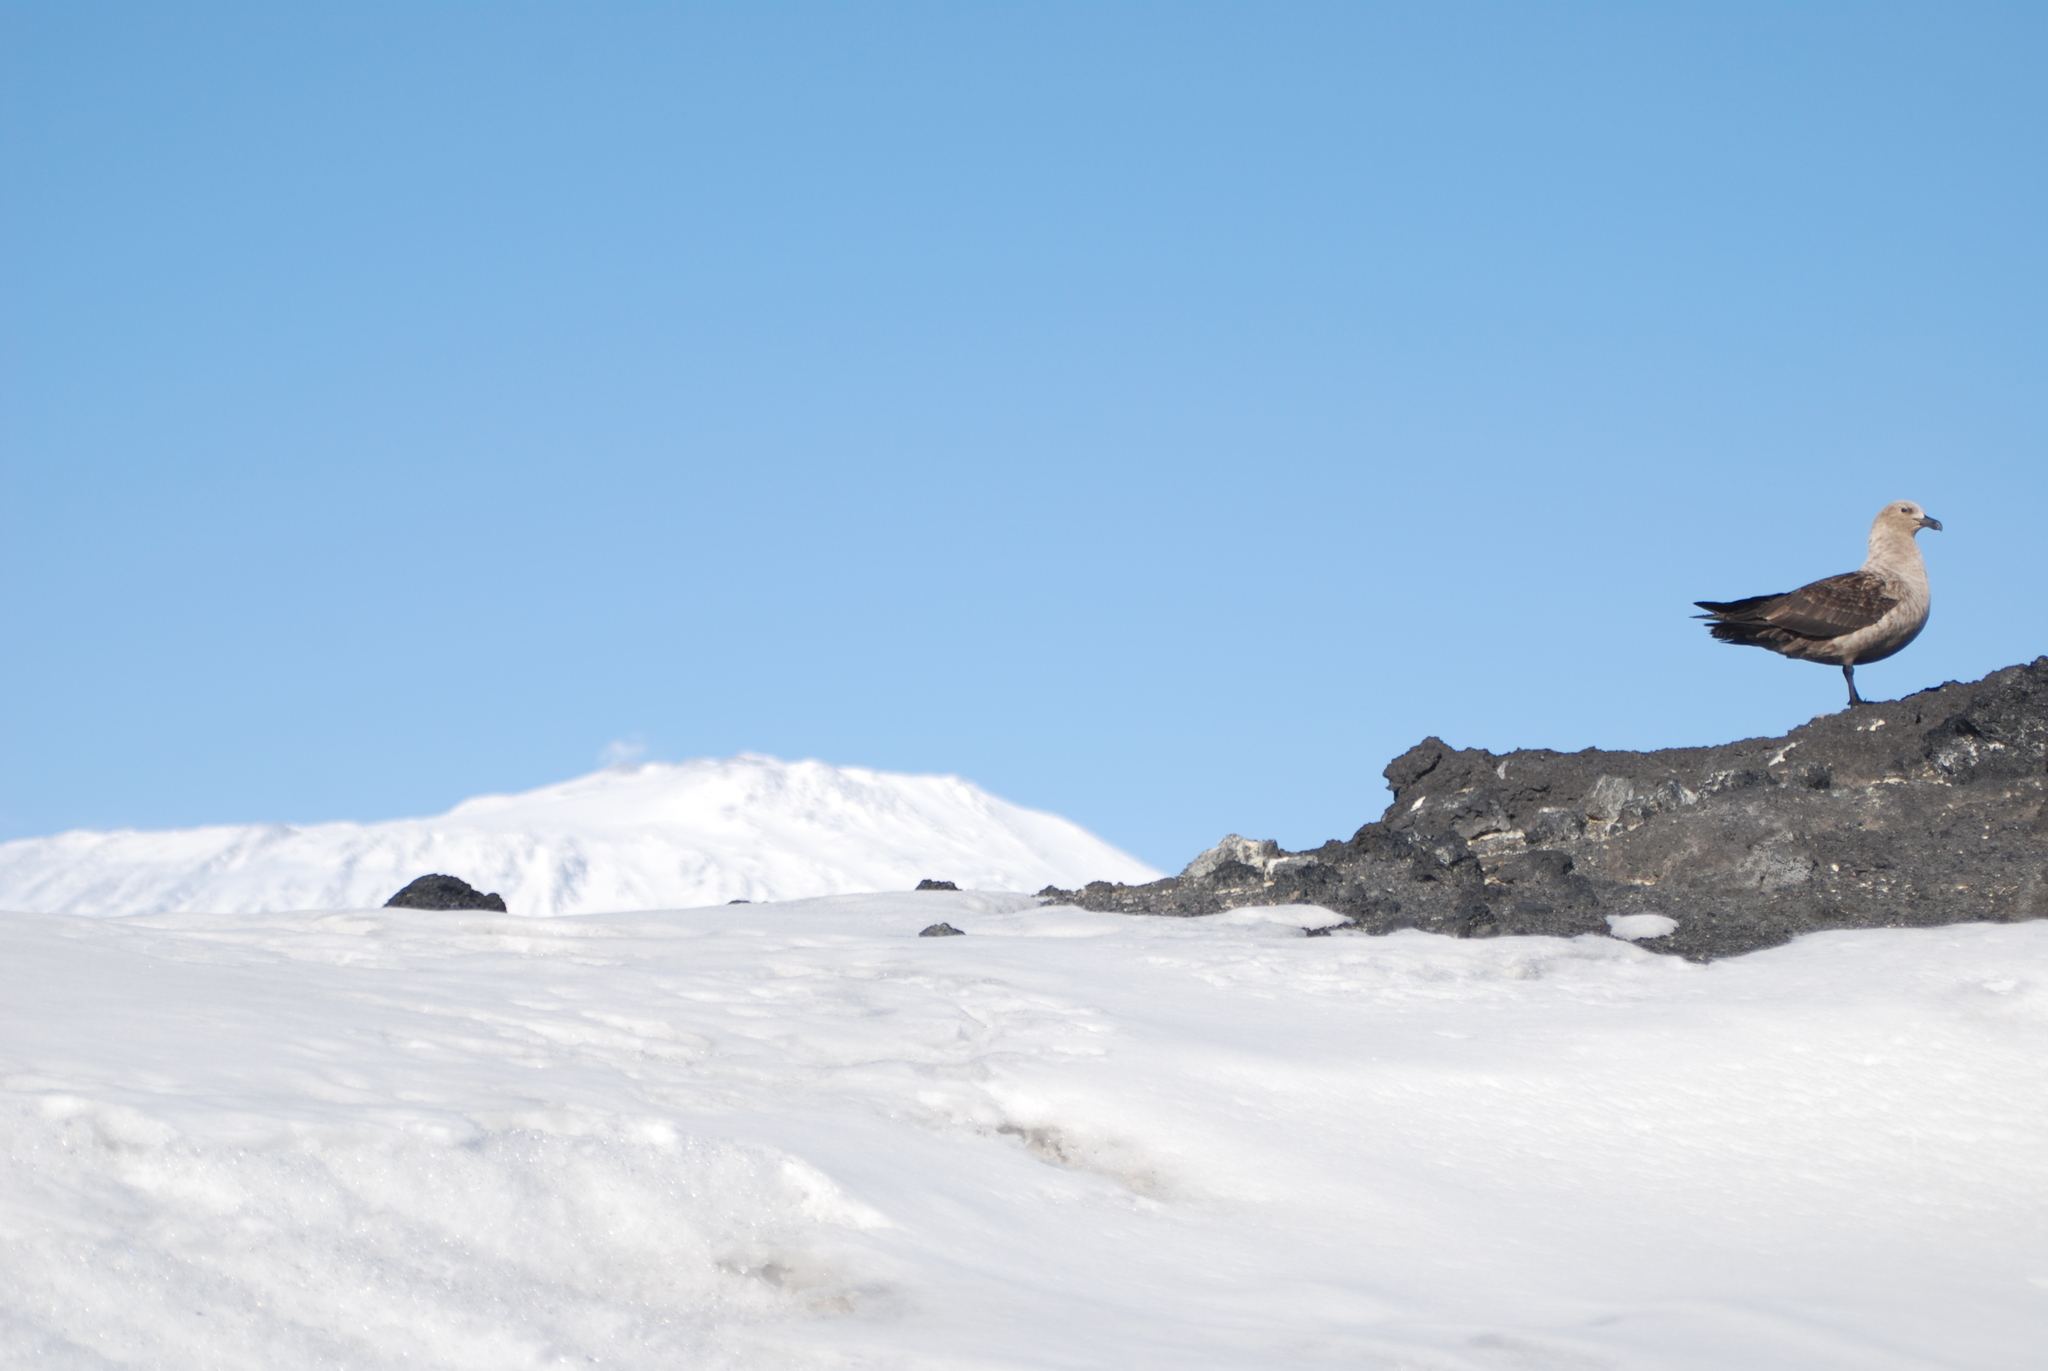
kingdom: Animalia
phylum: Chordata
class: Aves
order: Charadriiformes
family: Stercorariidae
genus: Stercorarius
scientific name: Stercorarius maccormicki
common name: South polar skua
